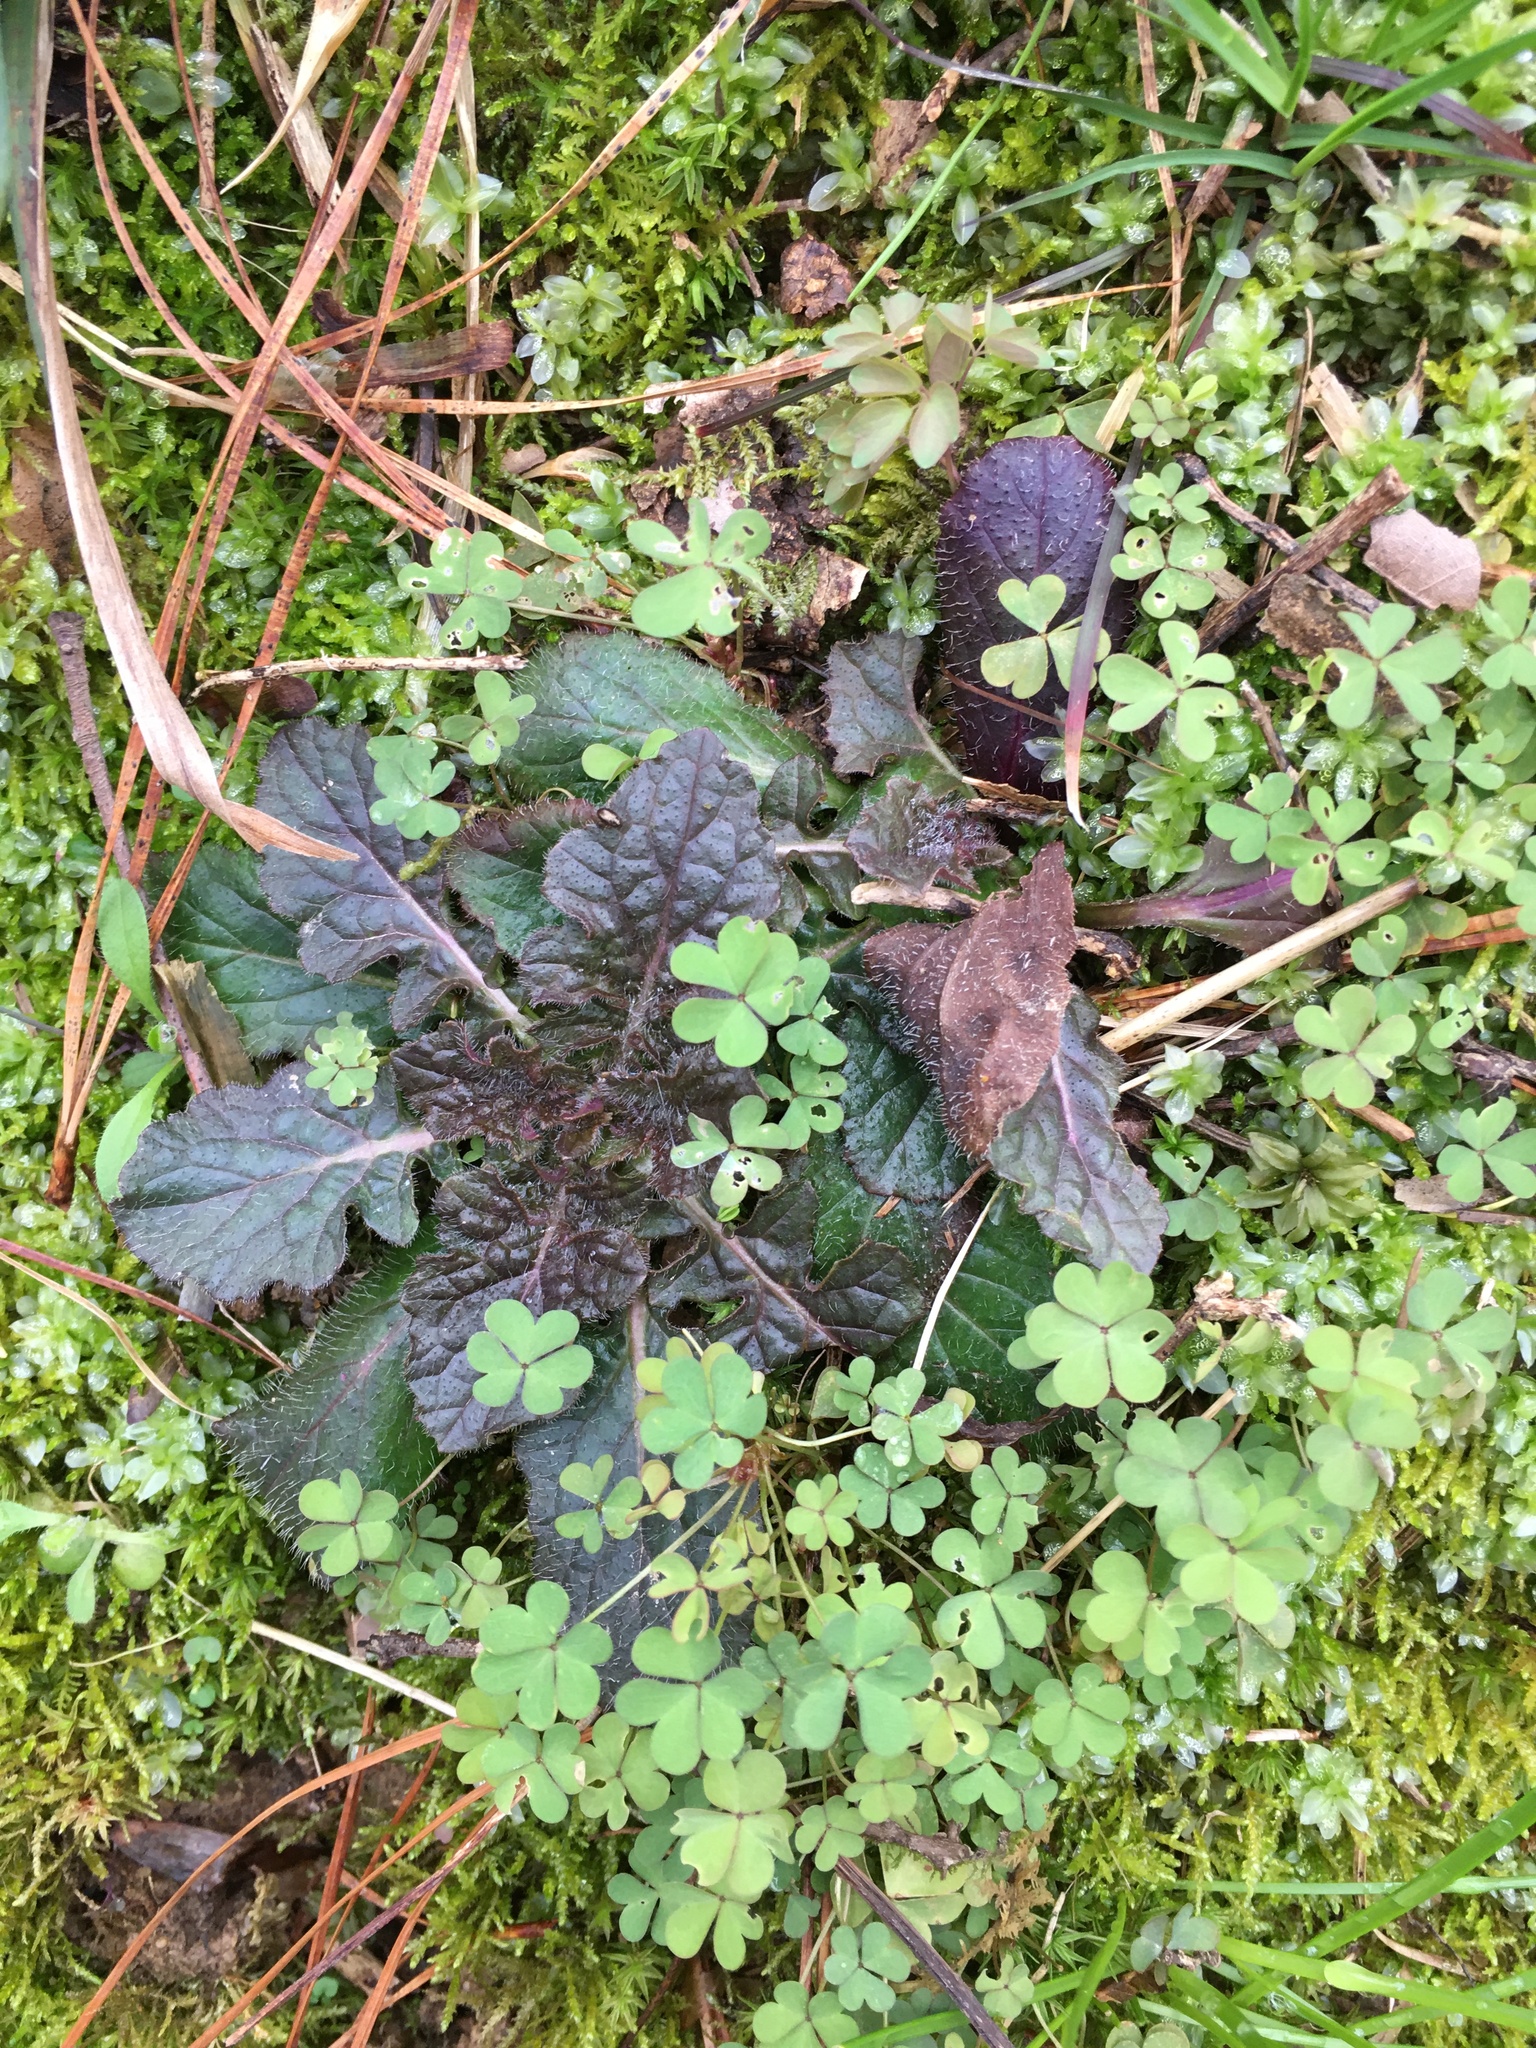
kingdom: Plantae
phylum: Tracheophyta
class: Magnoliopsida
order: Lamiales
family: Lamiaceae
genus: Salvia
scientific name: Salvia lyrata
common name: Cancerweed
